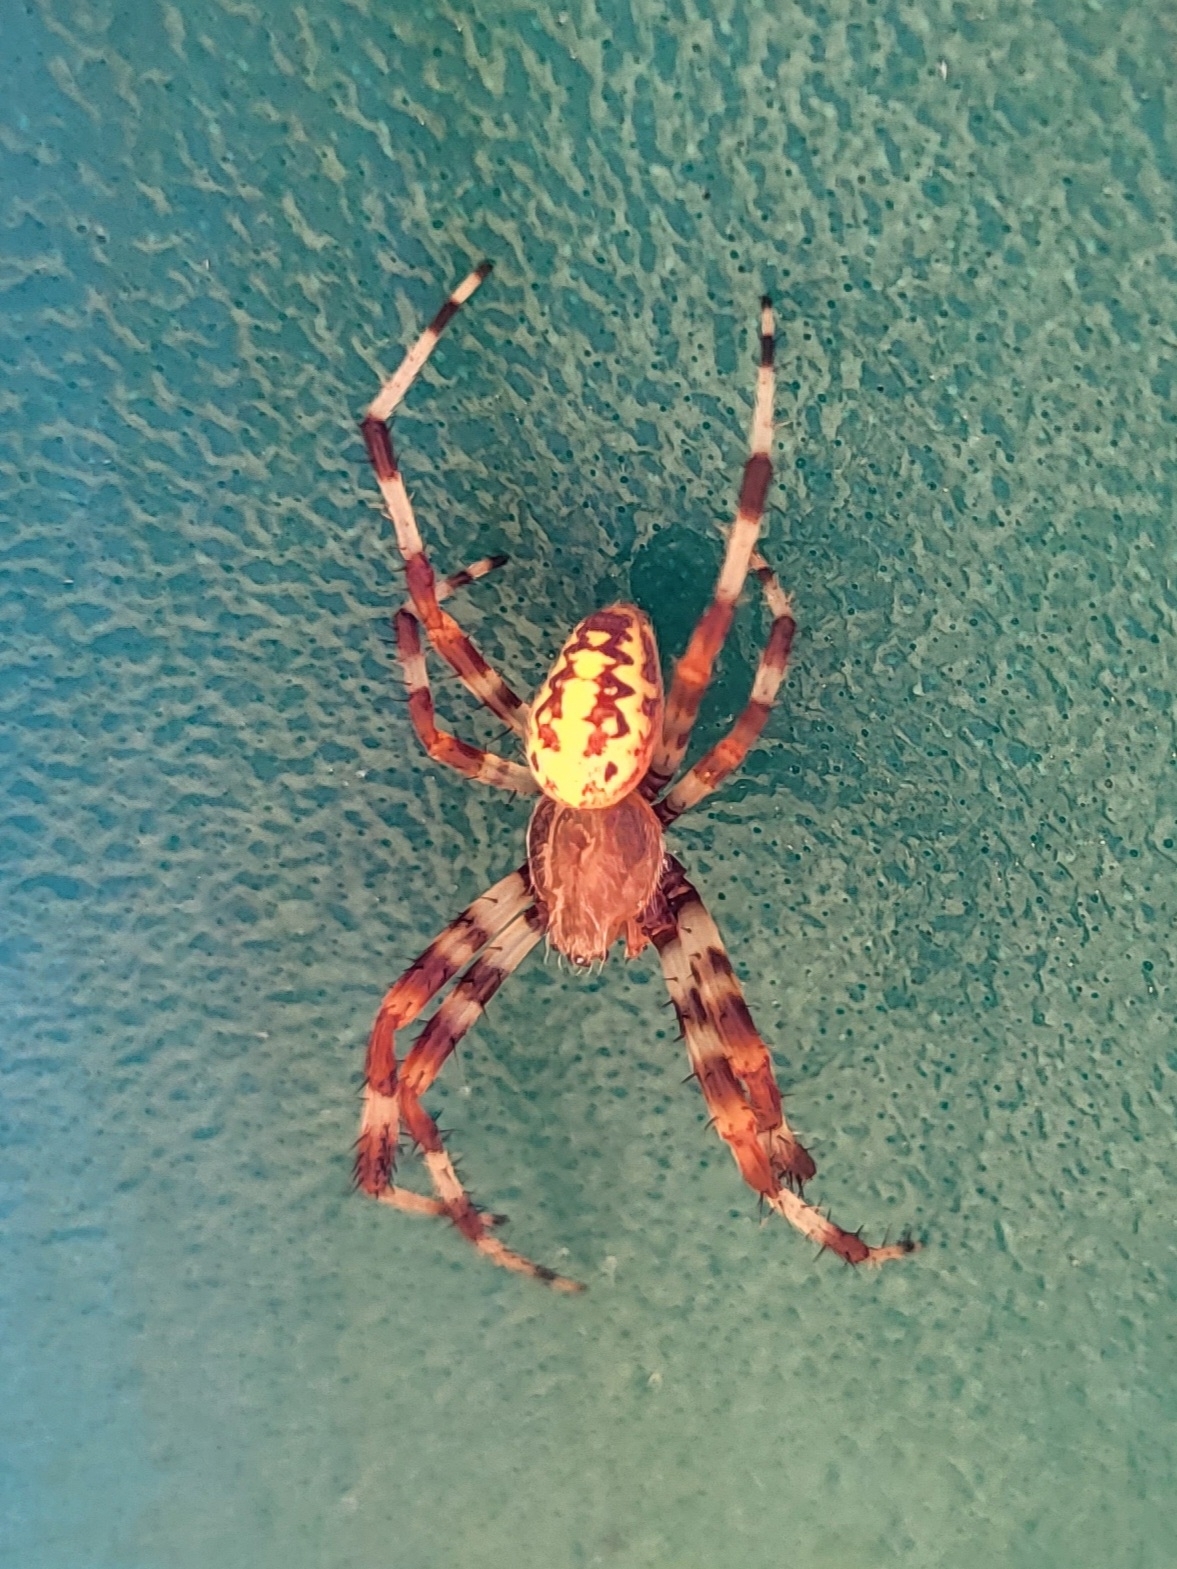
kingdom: Animalia
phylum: Arthropoda
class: Arachnida
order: Araneae
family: Araneidae
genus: Araneus
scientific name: Araneus marmoreus
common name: Marbled orbweaver
